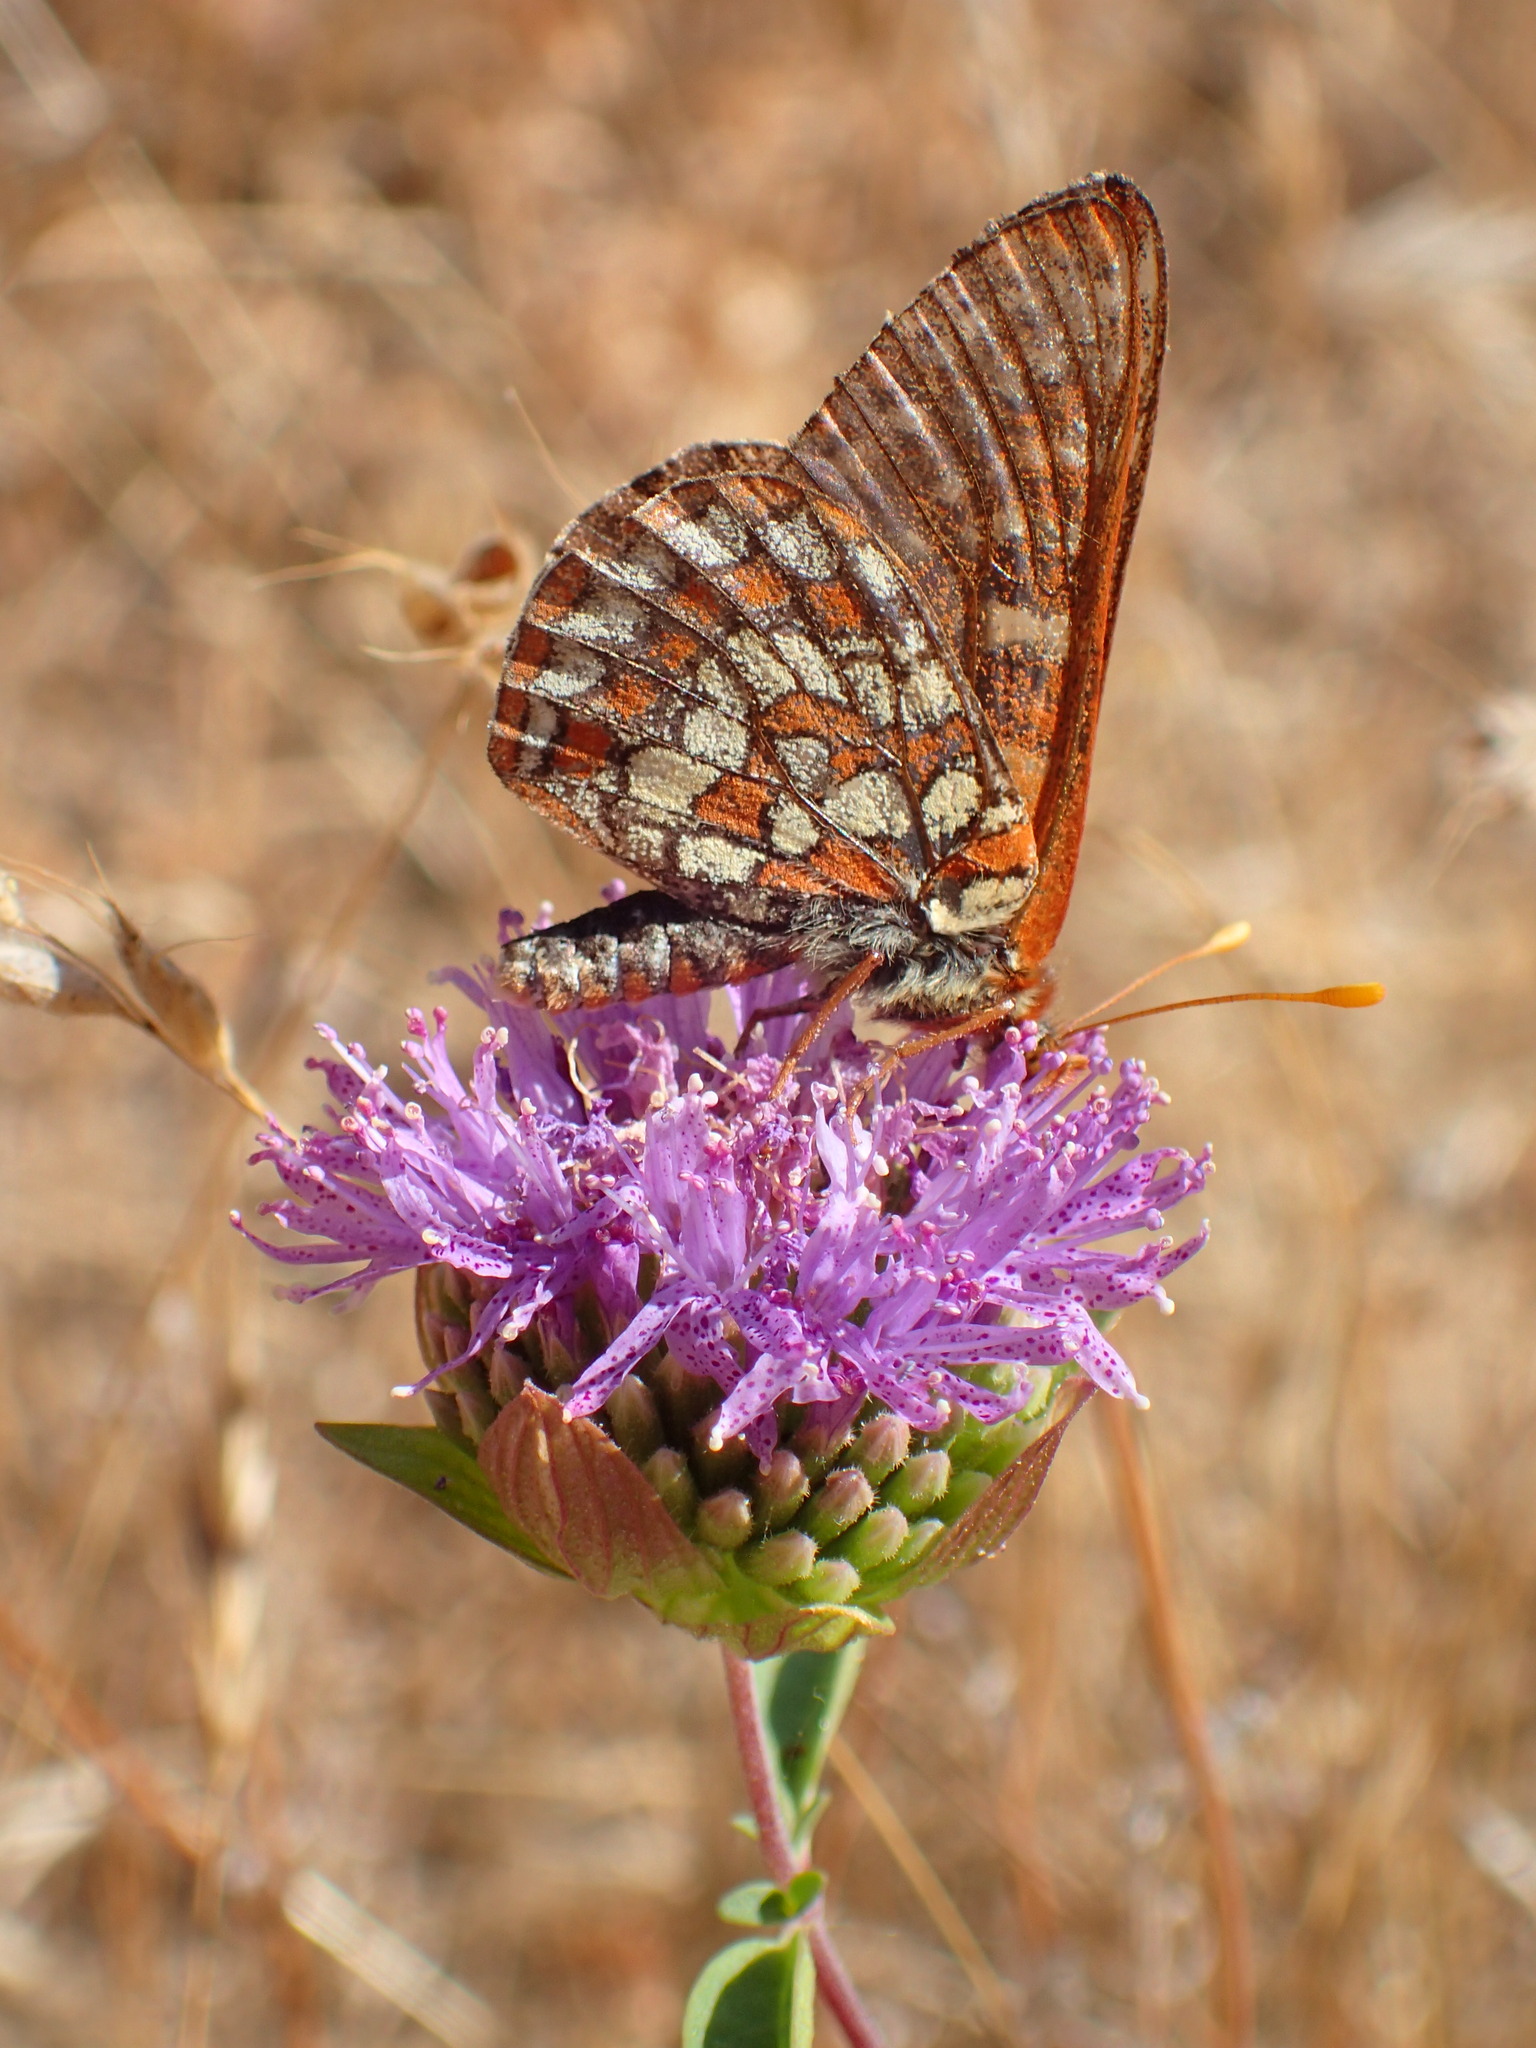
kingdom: Animalia
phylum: Arthropoda
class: Insecta
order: Lepidoptera
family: Nymphalidae
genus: Occidryas
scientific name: Occidryas chalcedona
